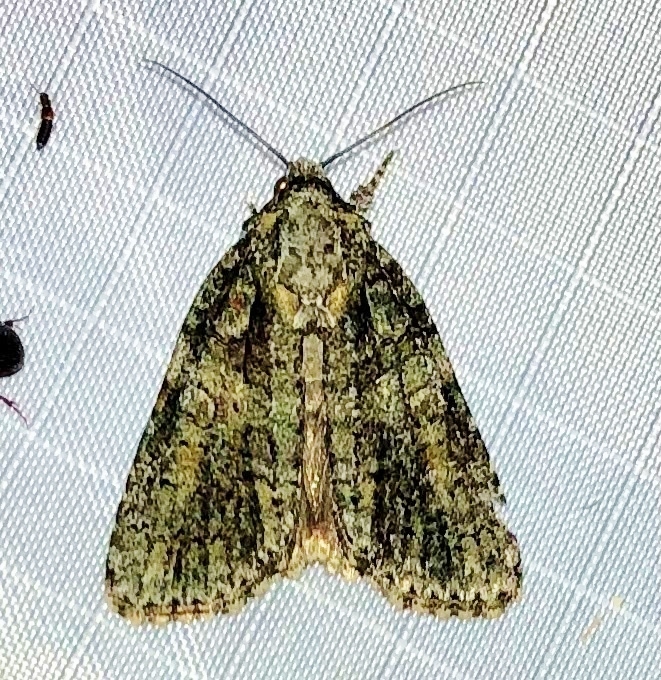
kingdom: Animalia
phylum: Arthropoda
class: Insecta
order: Lepidoptera
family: Noctuidae
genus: Acronicta
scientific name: Acronicta increta
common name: Eclipsed oak dagger
